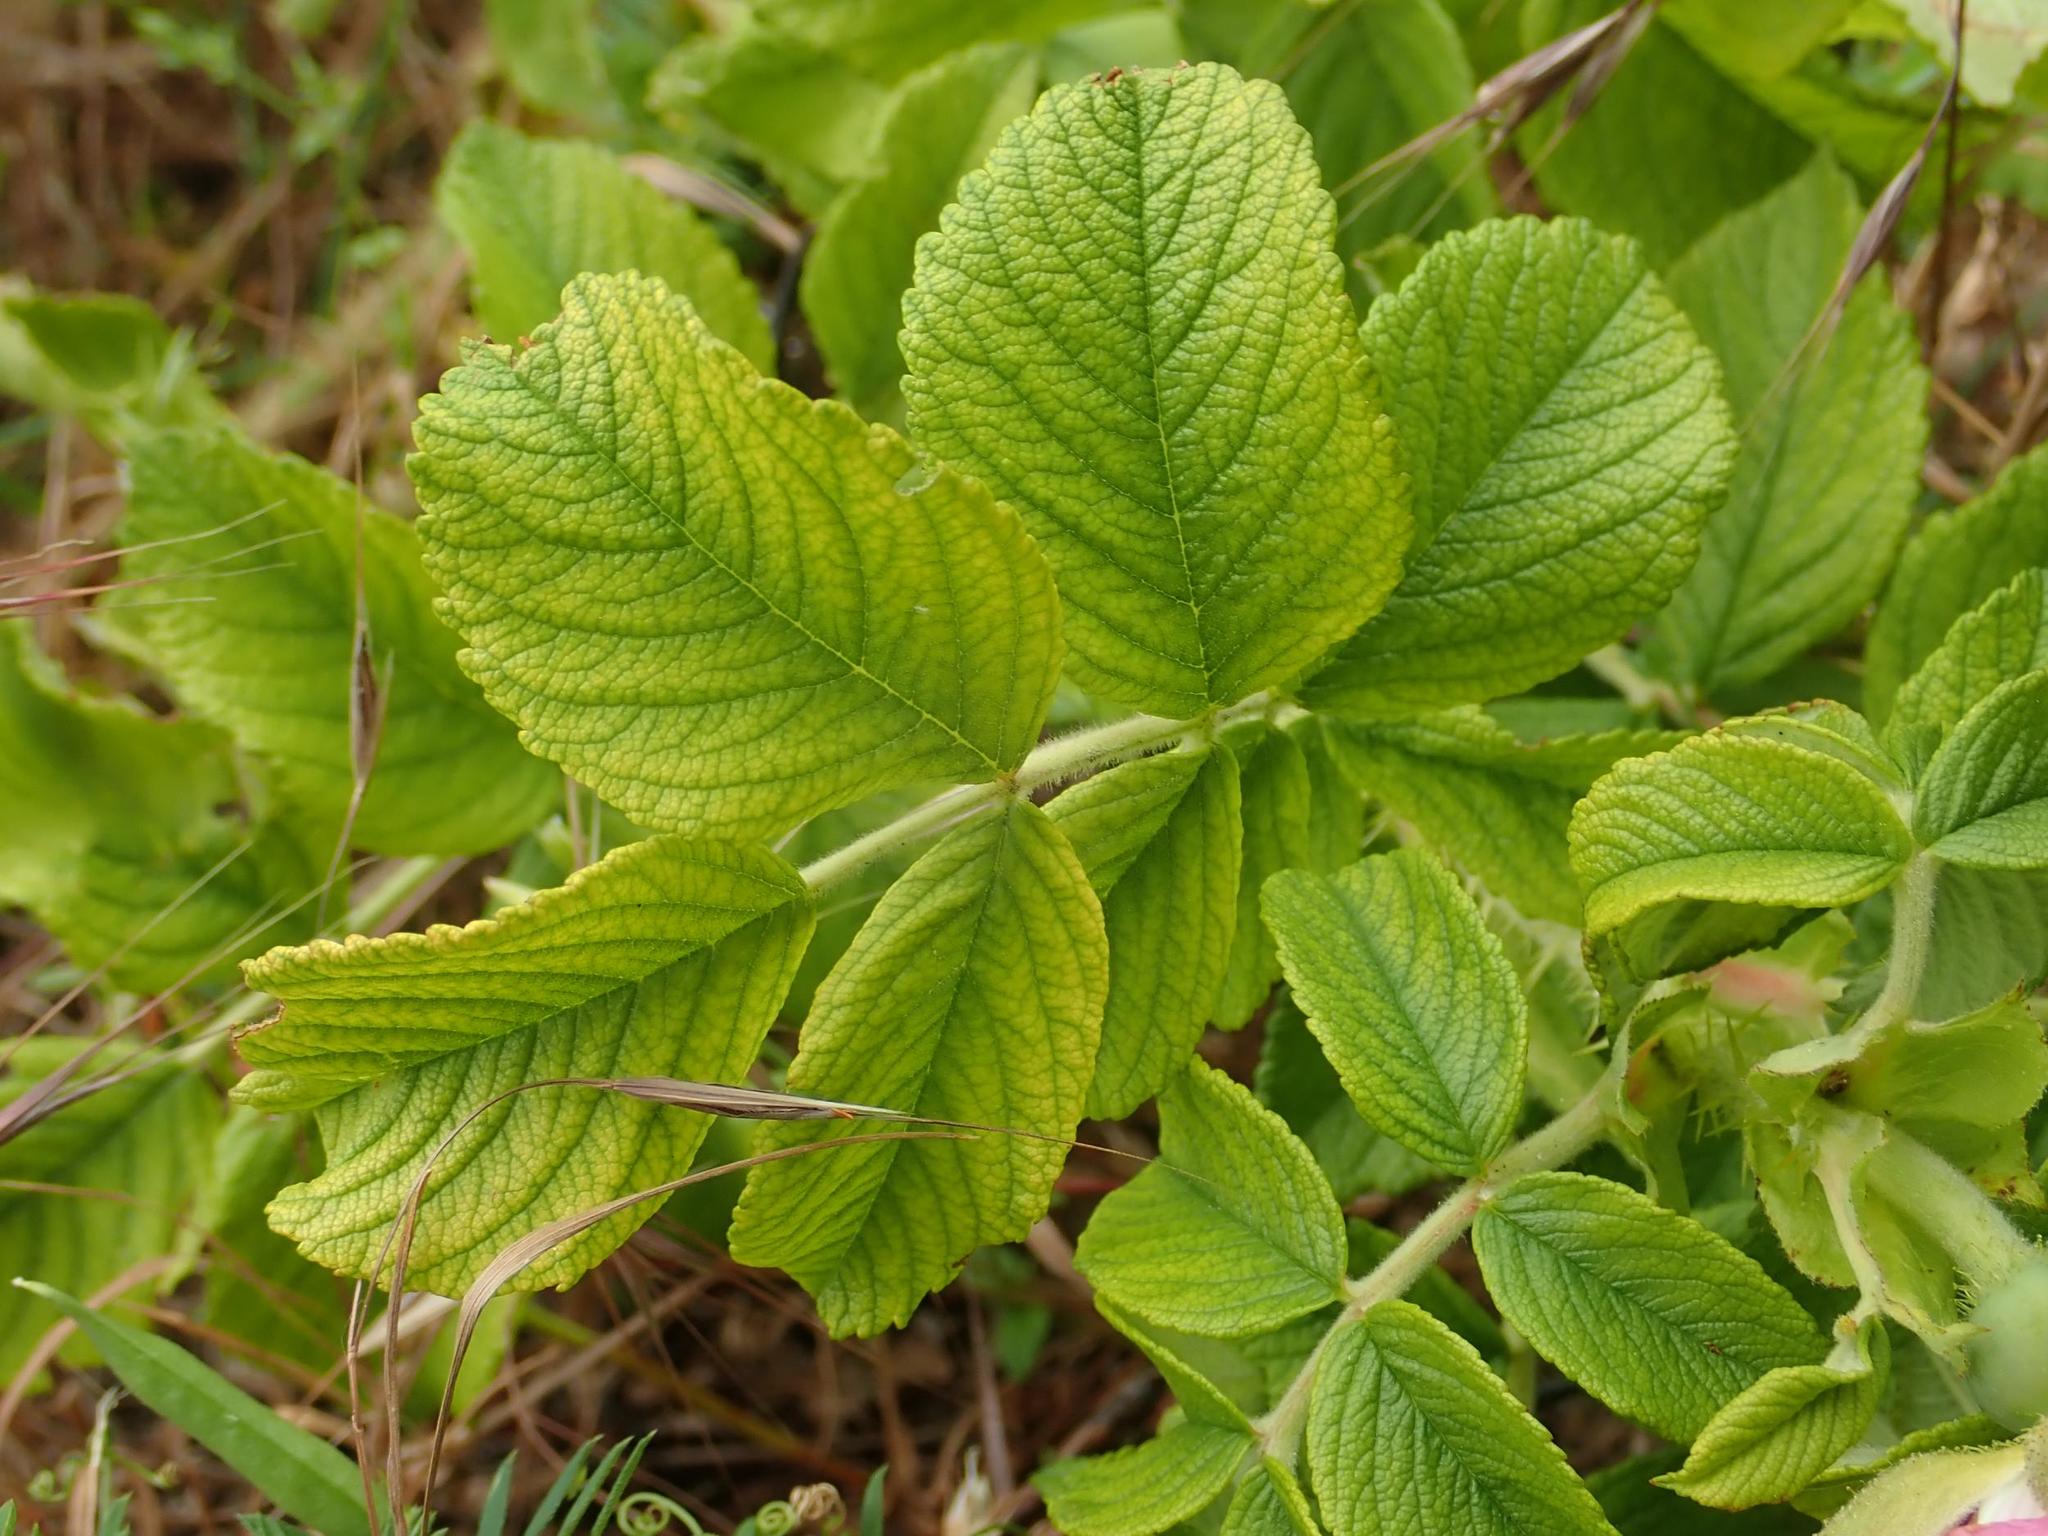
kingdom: Plantae
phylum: Tracheophyta
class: Magnoliopsida
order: Rosales
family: Rosaceae
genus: Rosa
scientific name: Rosa rugosa
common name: Japanese rose
